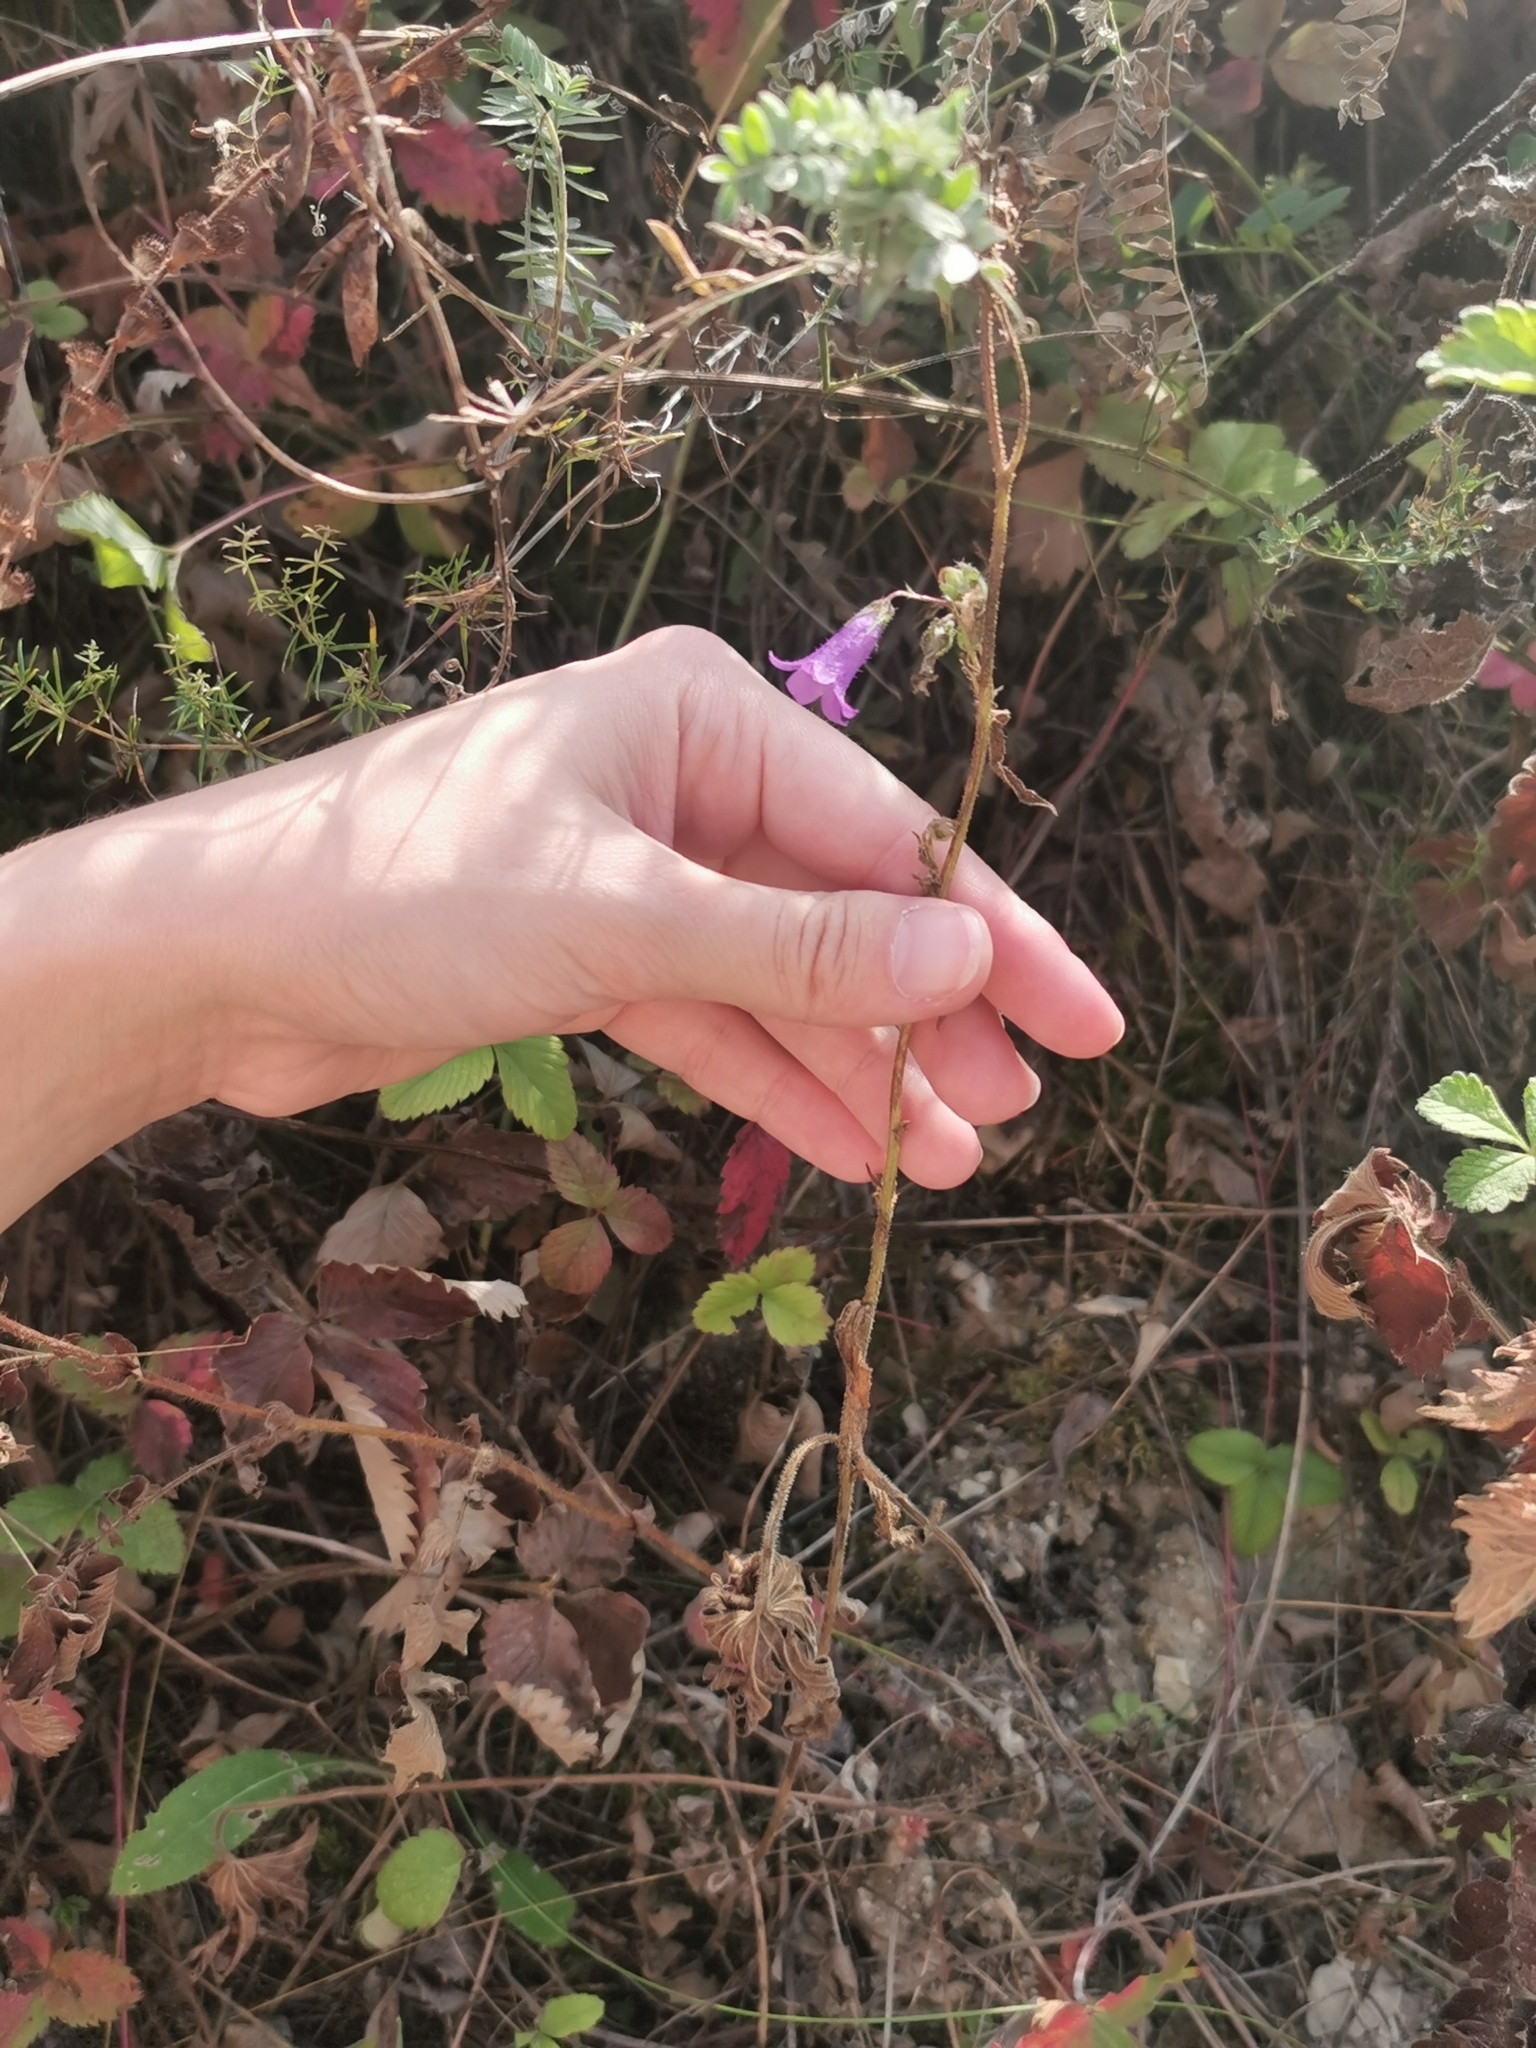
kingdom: Plantae
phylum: Tracheophyta
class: Magnoliopsida
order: Asterales
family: Campanulaceae
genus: Campanula
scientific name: Campanula sibirica
